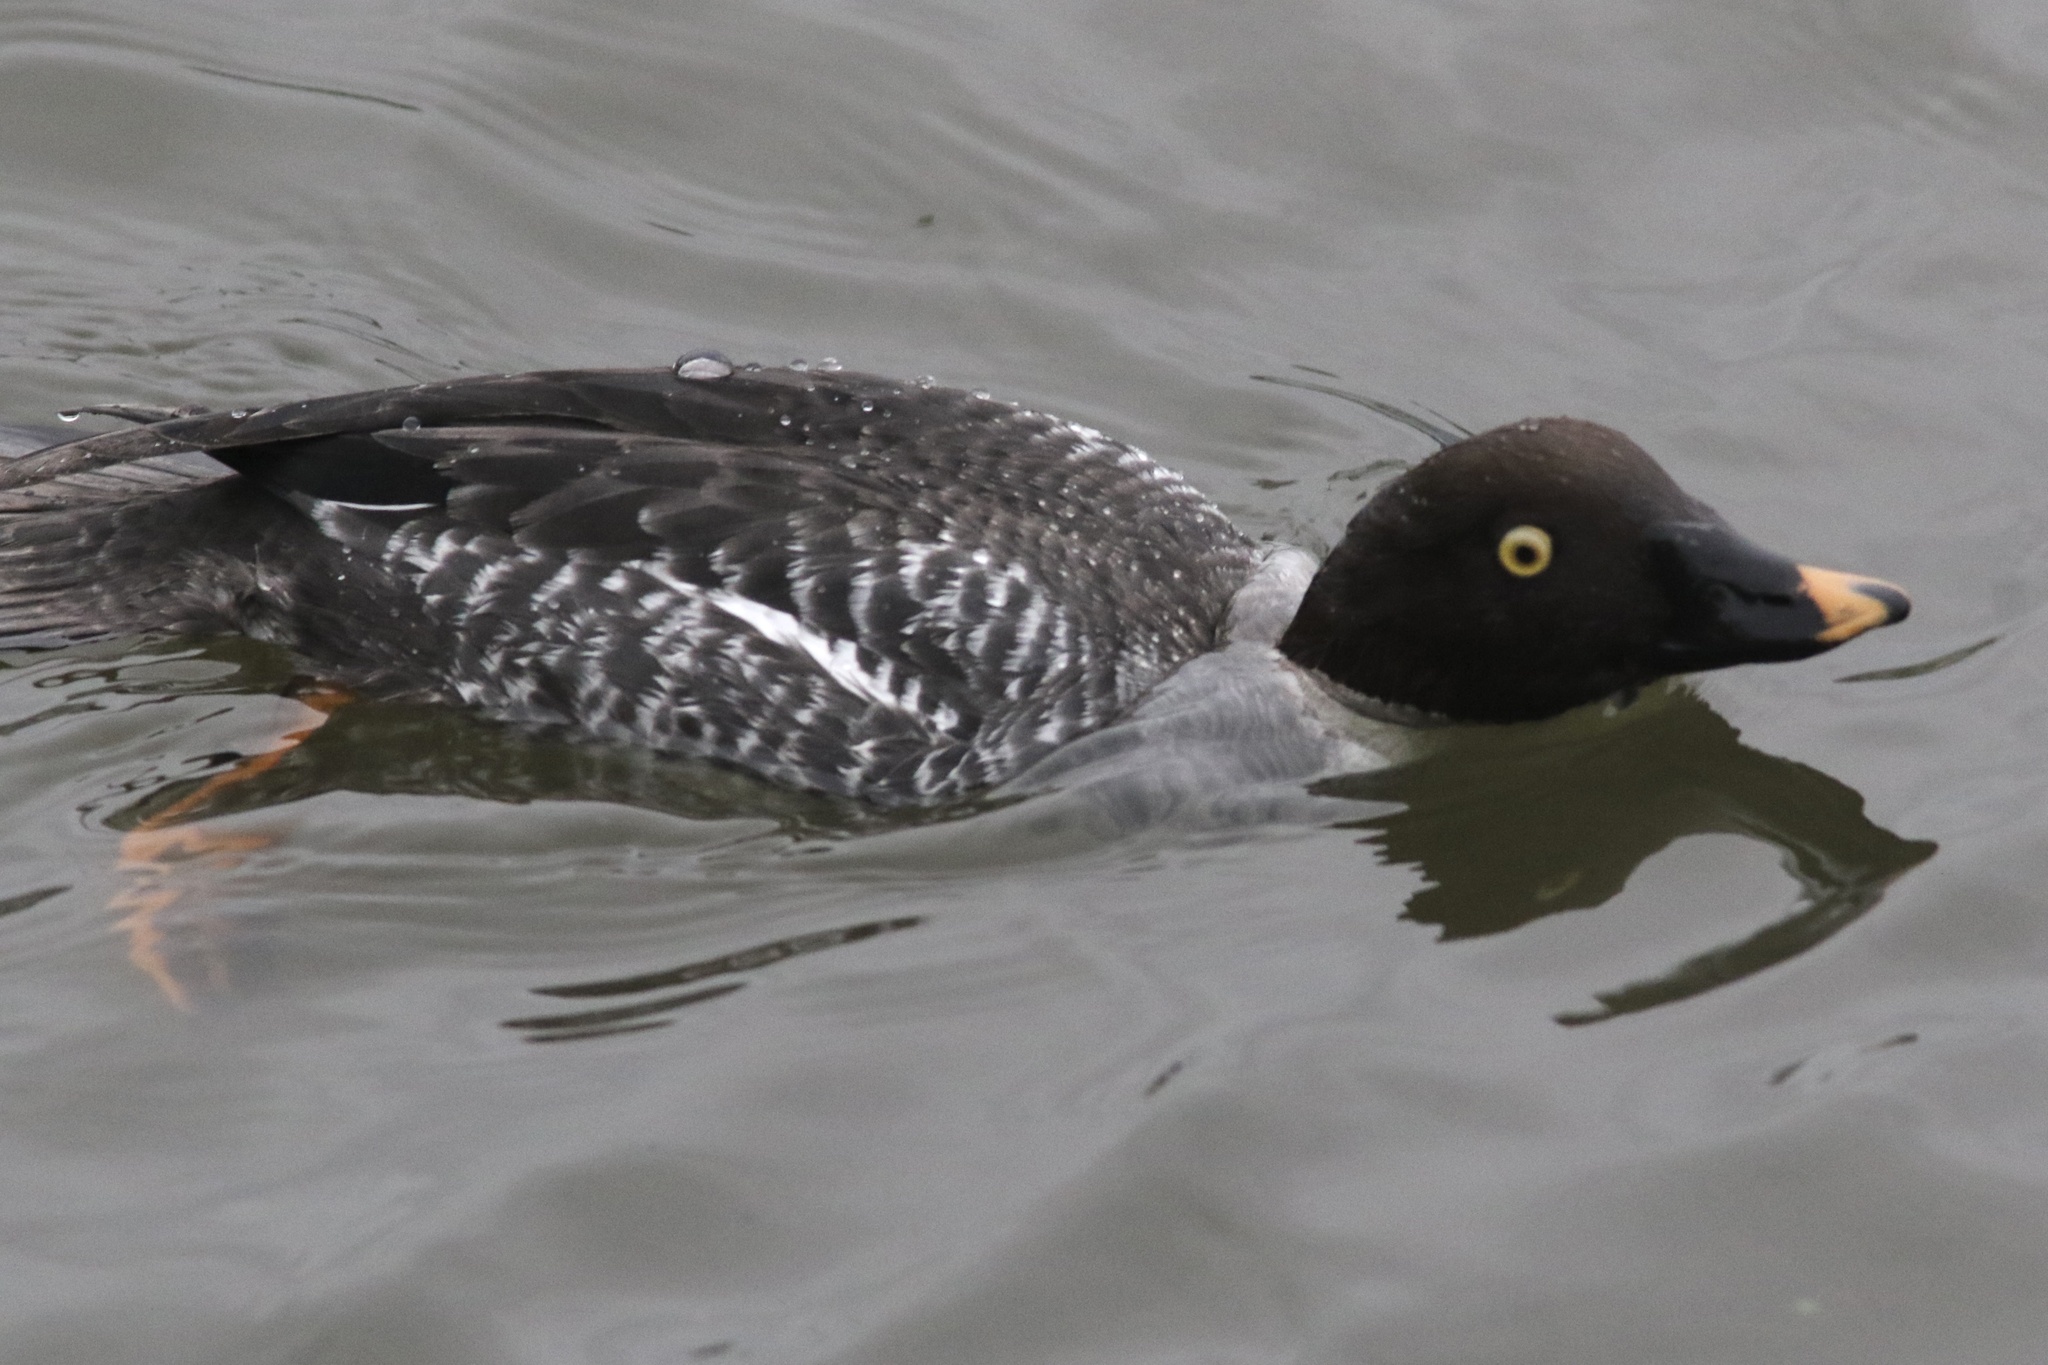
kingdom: Animalia
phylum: Chordata
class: Aves
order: Anseriformes
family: Anatidae
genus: Bucephala
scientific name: Bucephala clangula
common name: Common goldeneye
